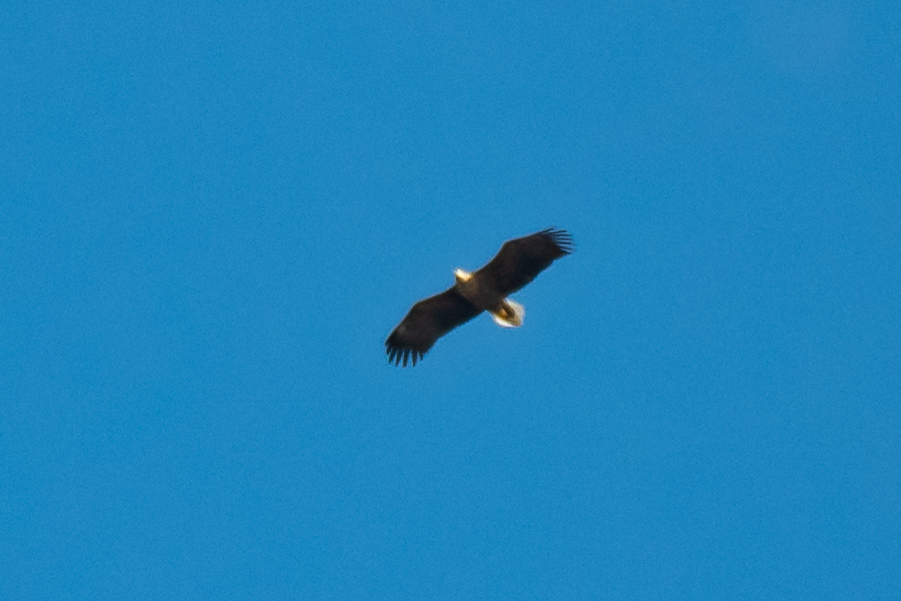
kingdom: Animalia
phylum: Chordata
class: Aves
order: Accipitriformes
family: Accipitridae
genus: Haliaeetus
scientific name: Haliaeetus albicilla
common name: White-tailed eagle
